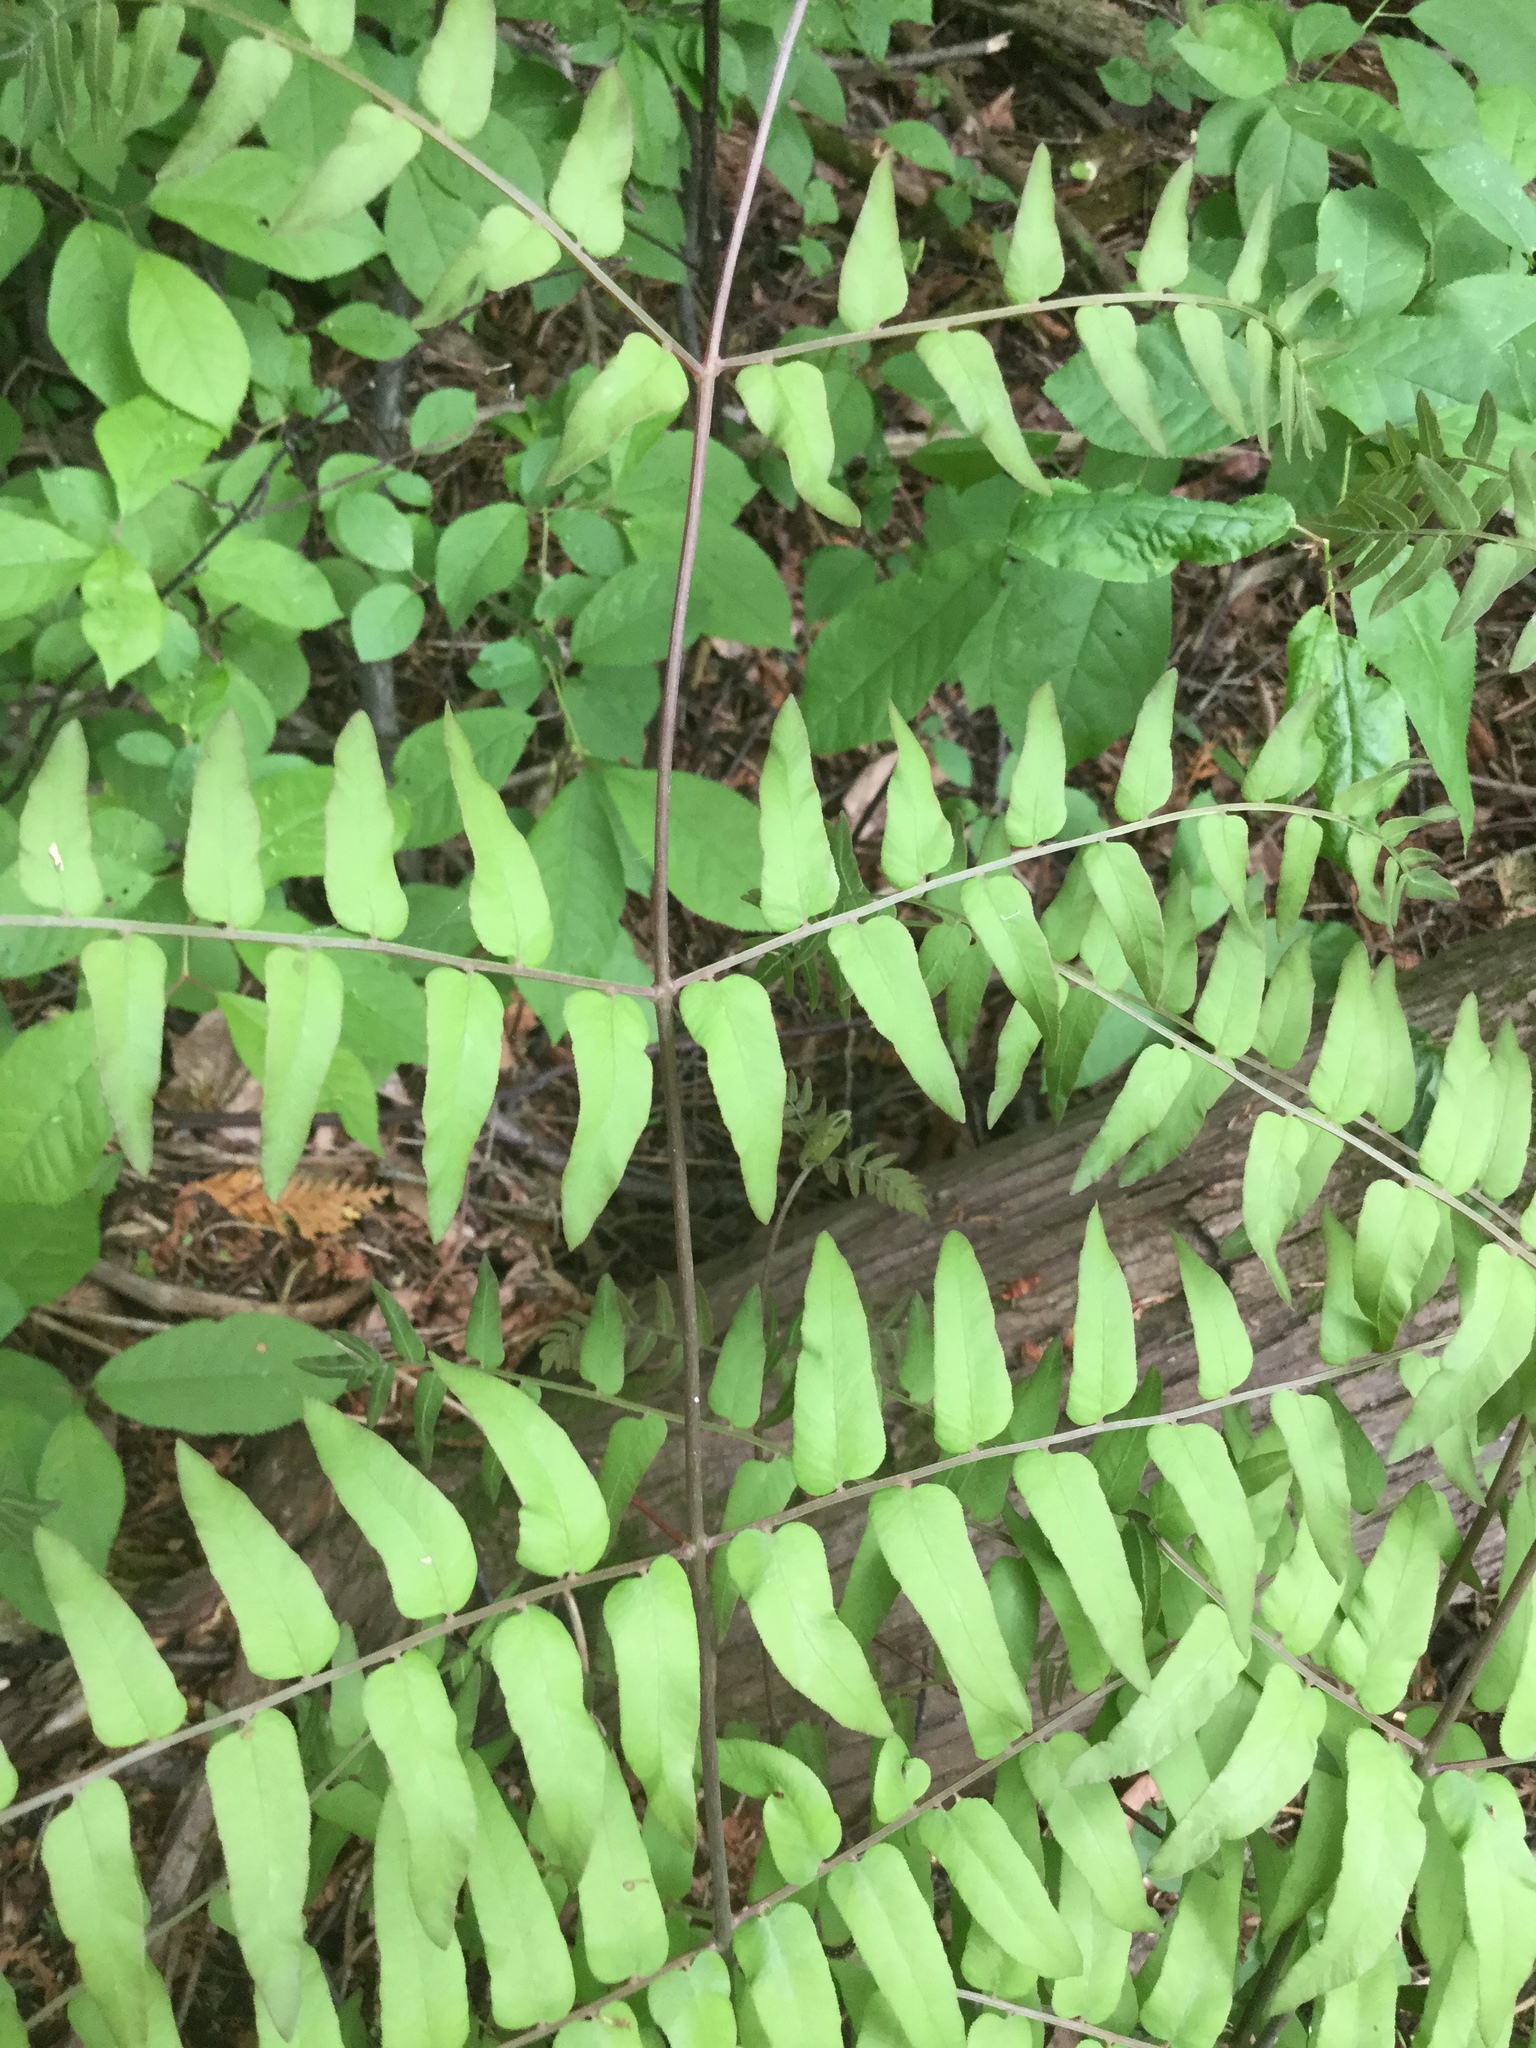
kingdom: Plantae
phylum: Tracheophyta
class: Polypodiopsida
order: Osmundales
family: Osmundaceae
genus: Osmunda
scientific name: Osmunda spectabilis
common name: American royal fern
